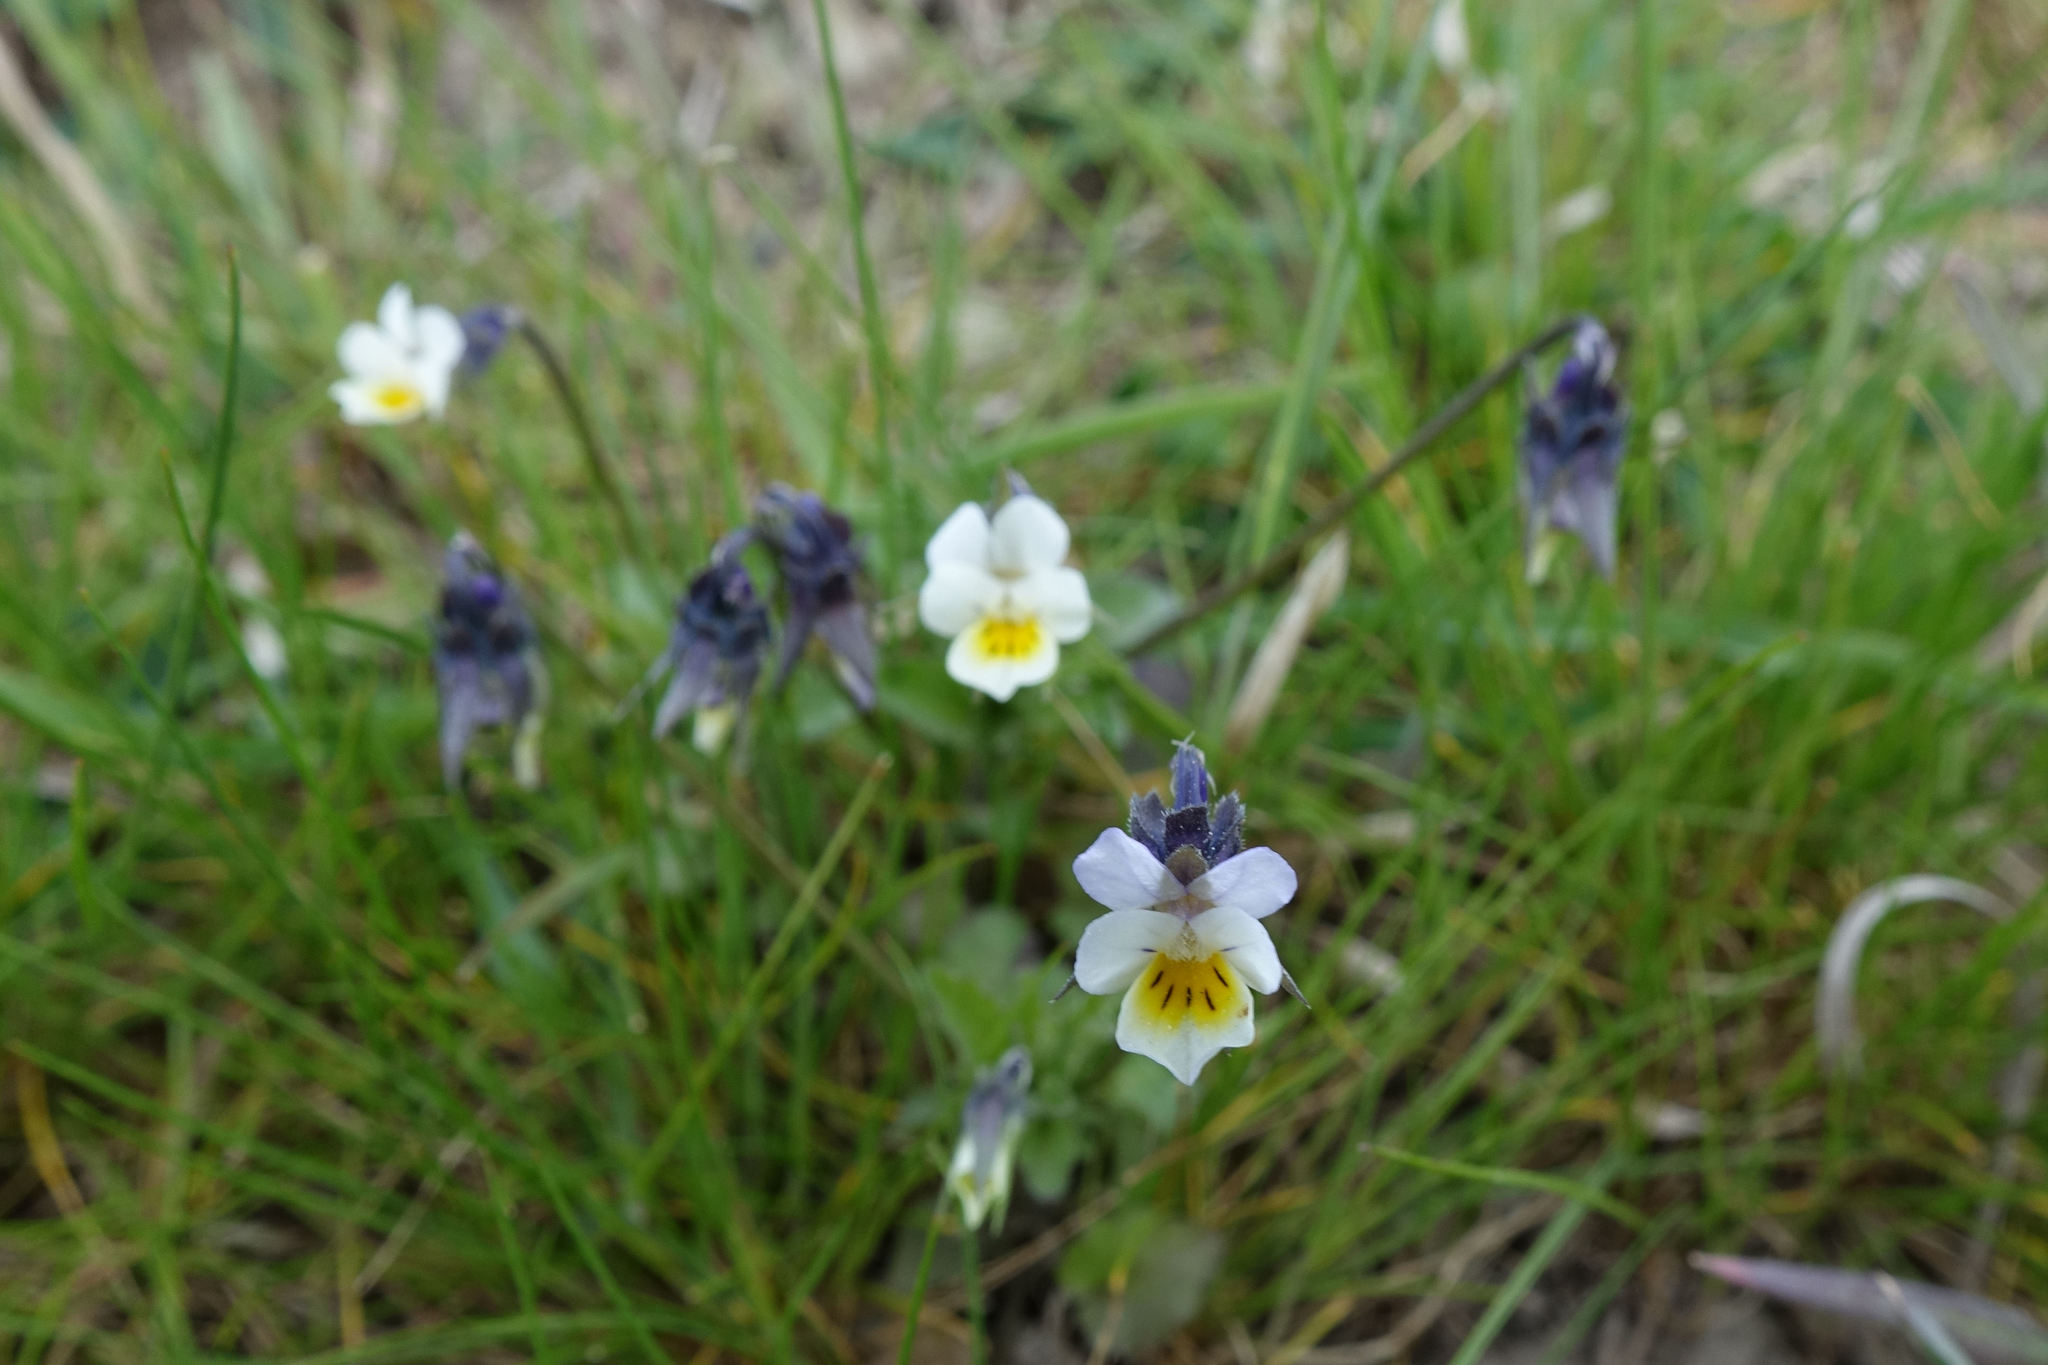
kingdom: Plantae
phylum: Tracheophyta
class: Magnoliopsida
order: Malpighiales
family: Violaceae
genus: Viola
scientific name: Viola arvensis
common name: Field pansy
